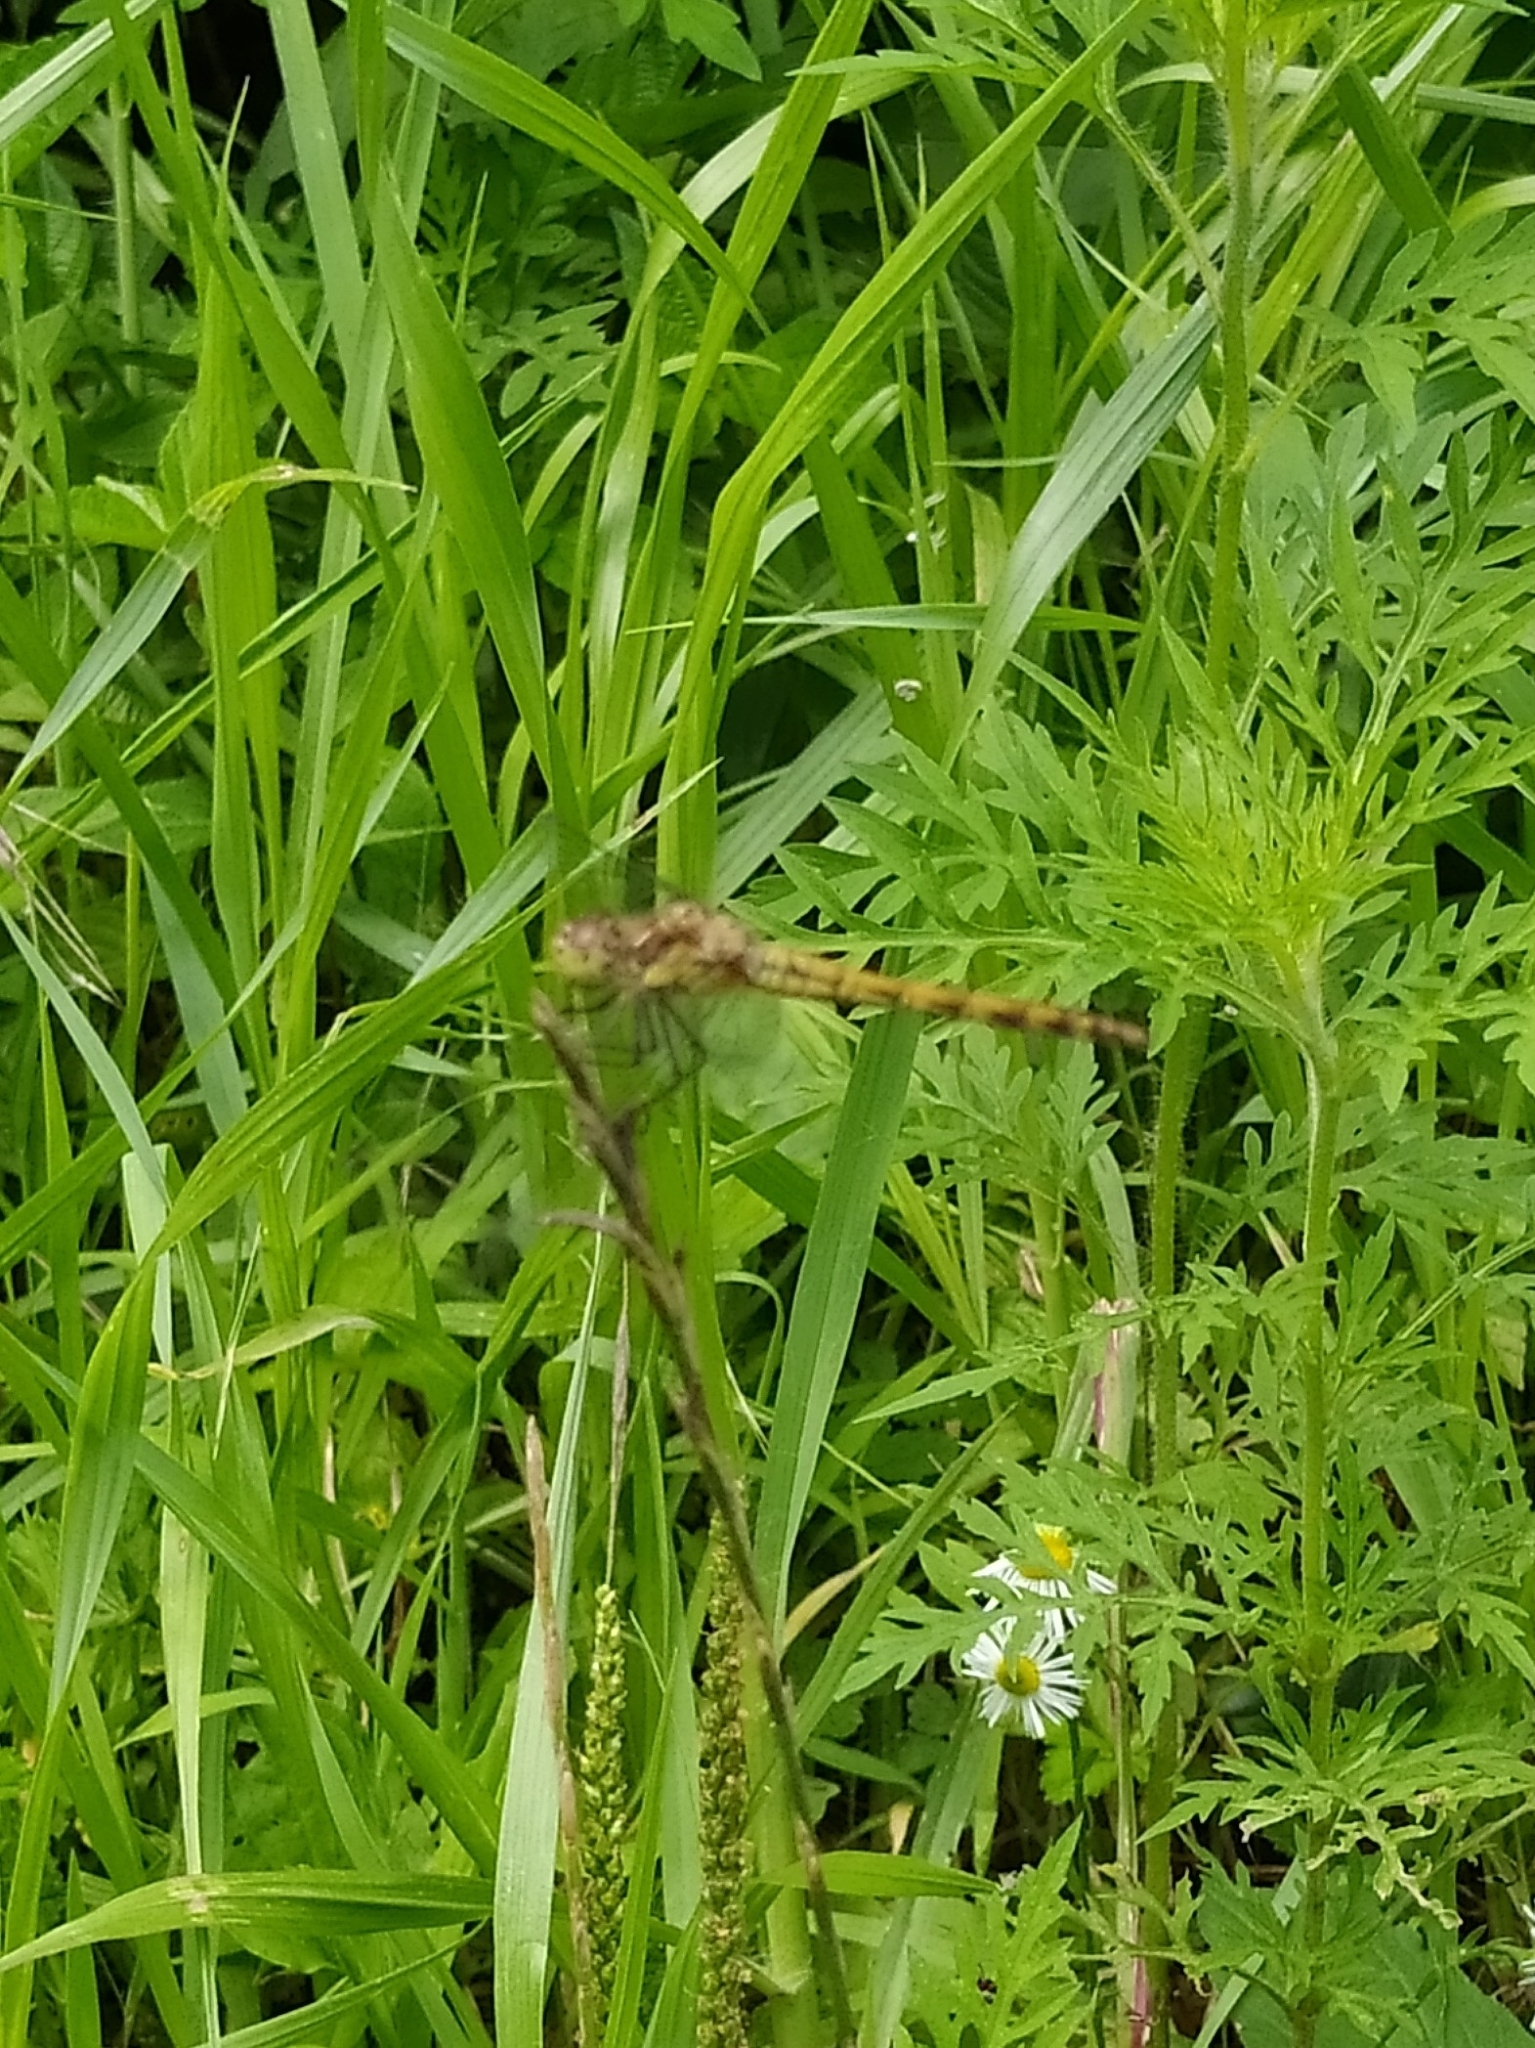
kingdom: Animalia
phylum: Arthropoda
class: Insecta
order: Odonata
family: Libellulidae
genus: Sympetrum
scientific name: Sympetrum striolatum
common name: Common darter
